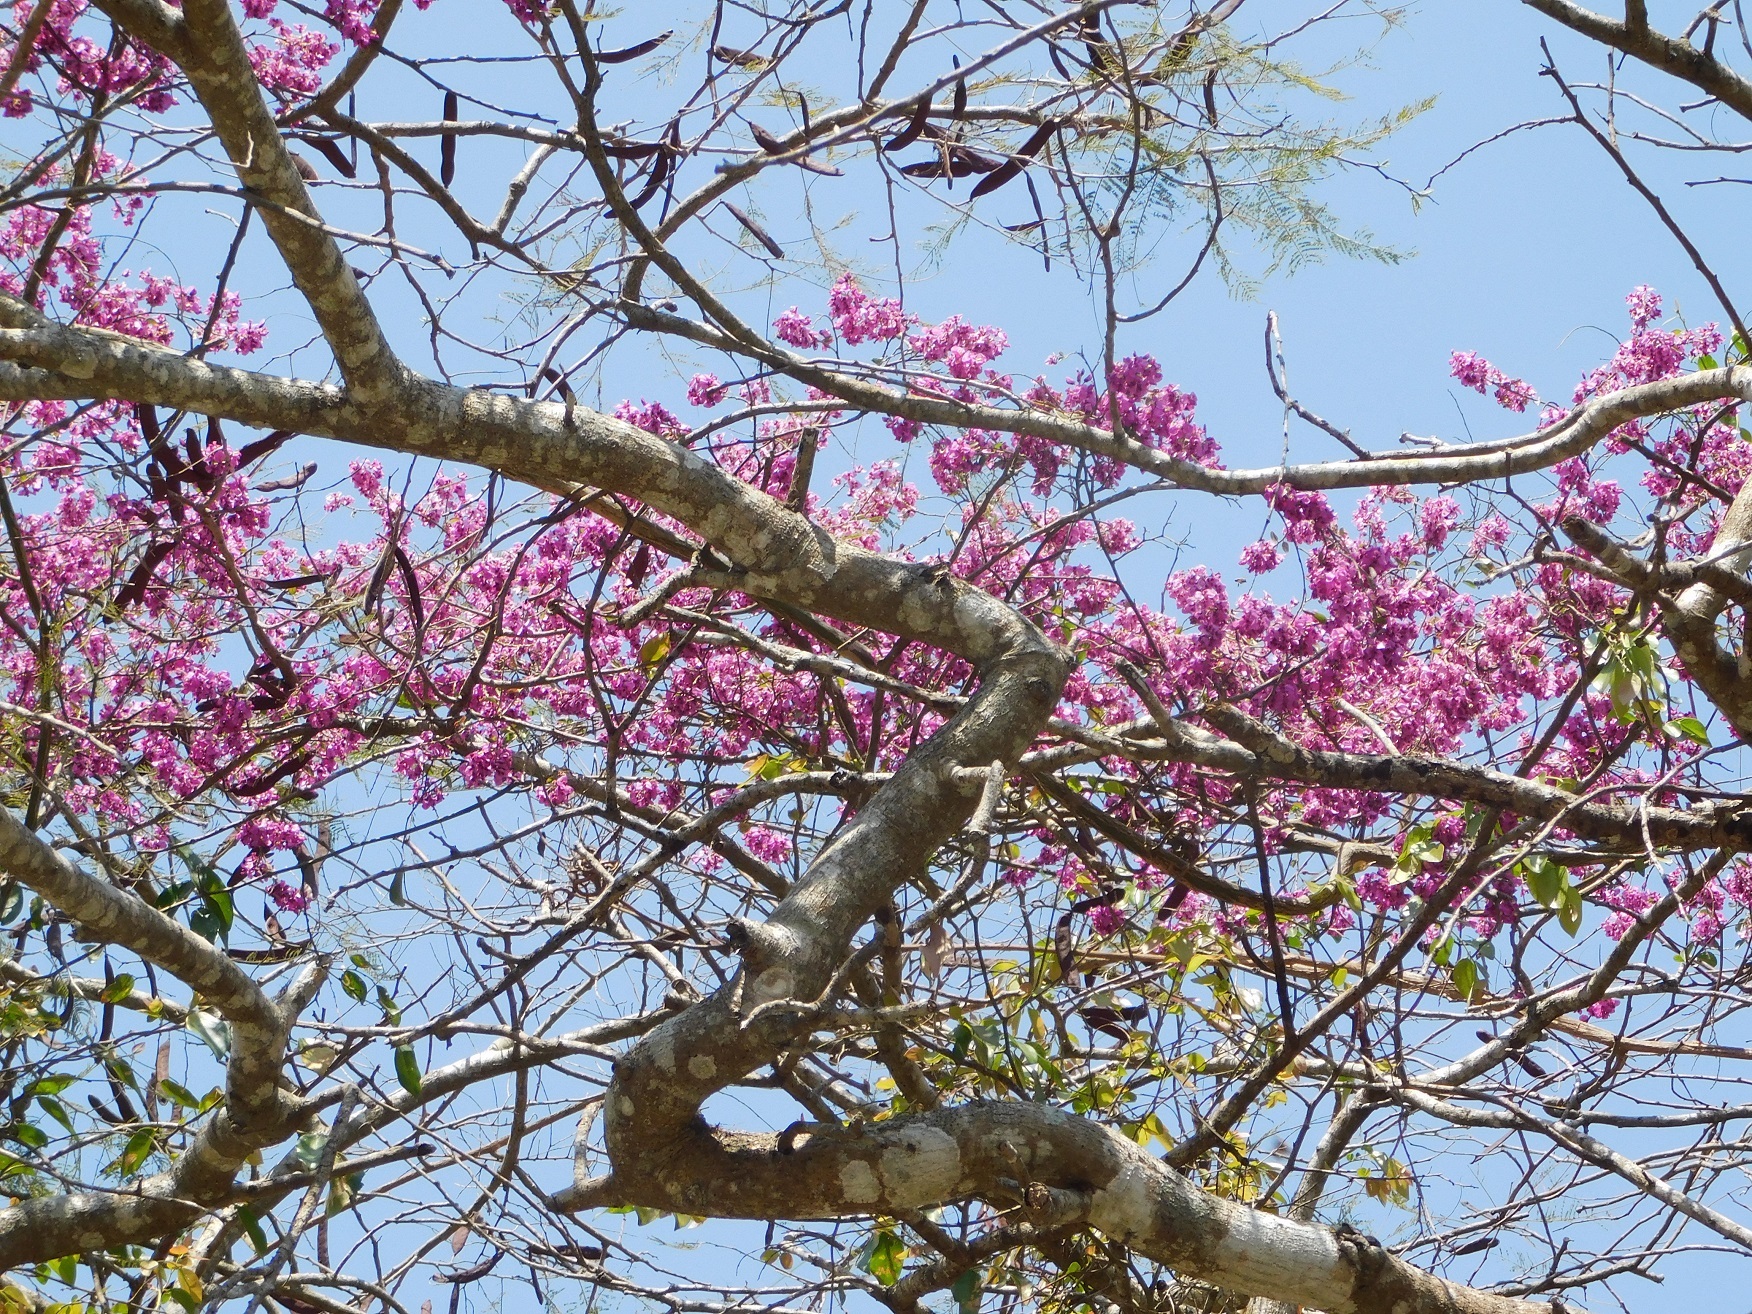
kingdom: Plantae
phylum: Tracheophyta
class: Magnoliopsida
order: Fabales
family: Polygalaceae
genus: Asemeia
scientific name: Asemeia floribunda
